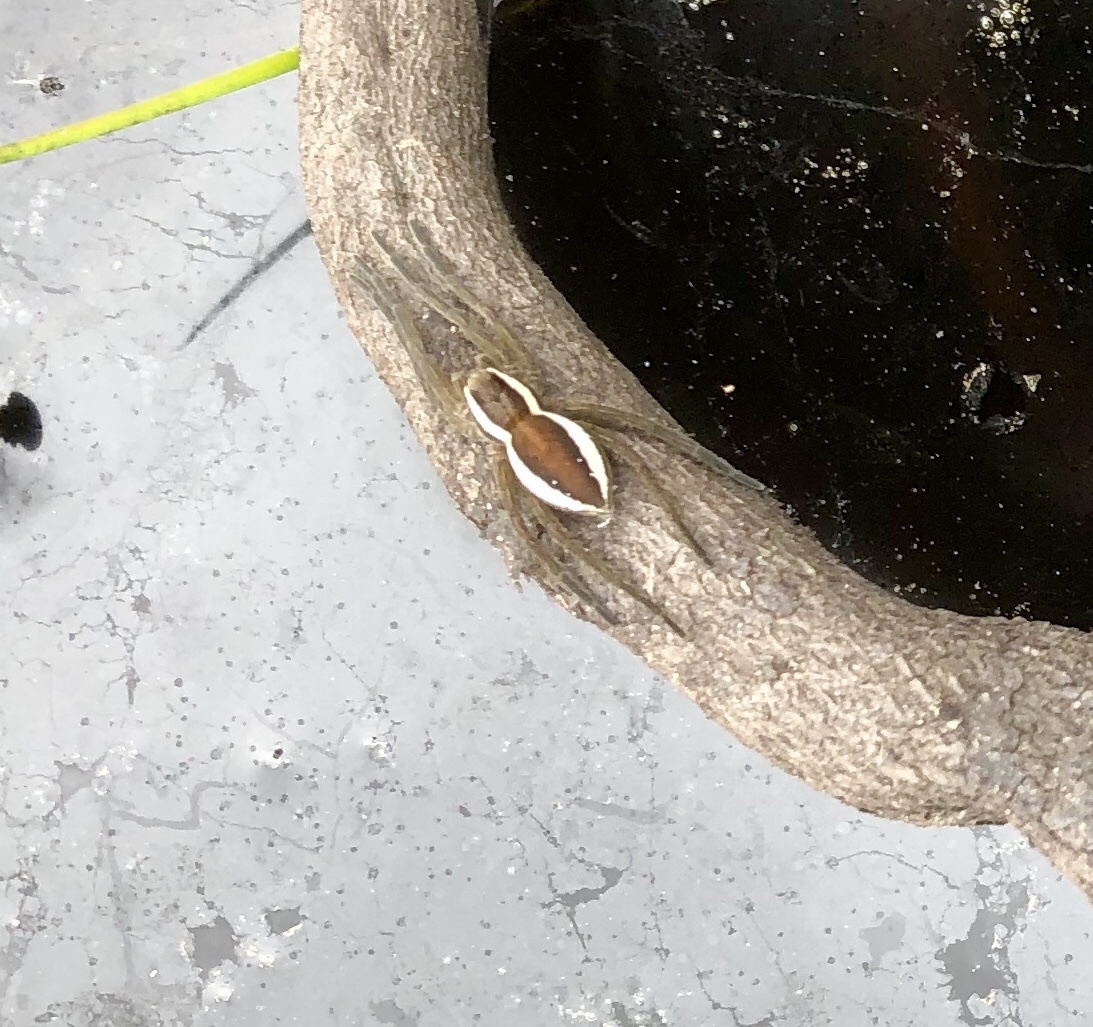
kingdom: Animalia
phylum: Arthropoda
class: Arachnida
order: Araneae
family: Pisauridae
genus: Dolomedes
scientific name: Dolomedes fimbriatus
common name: Raft spider
